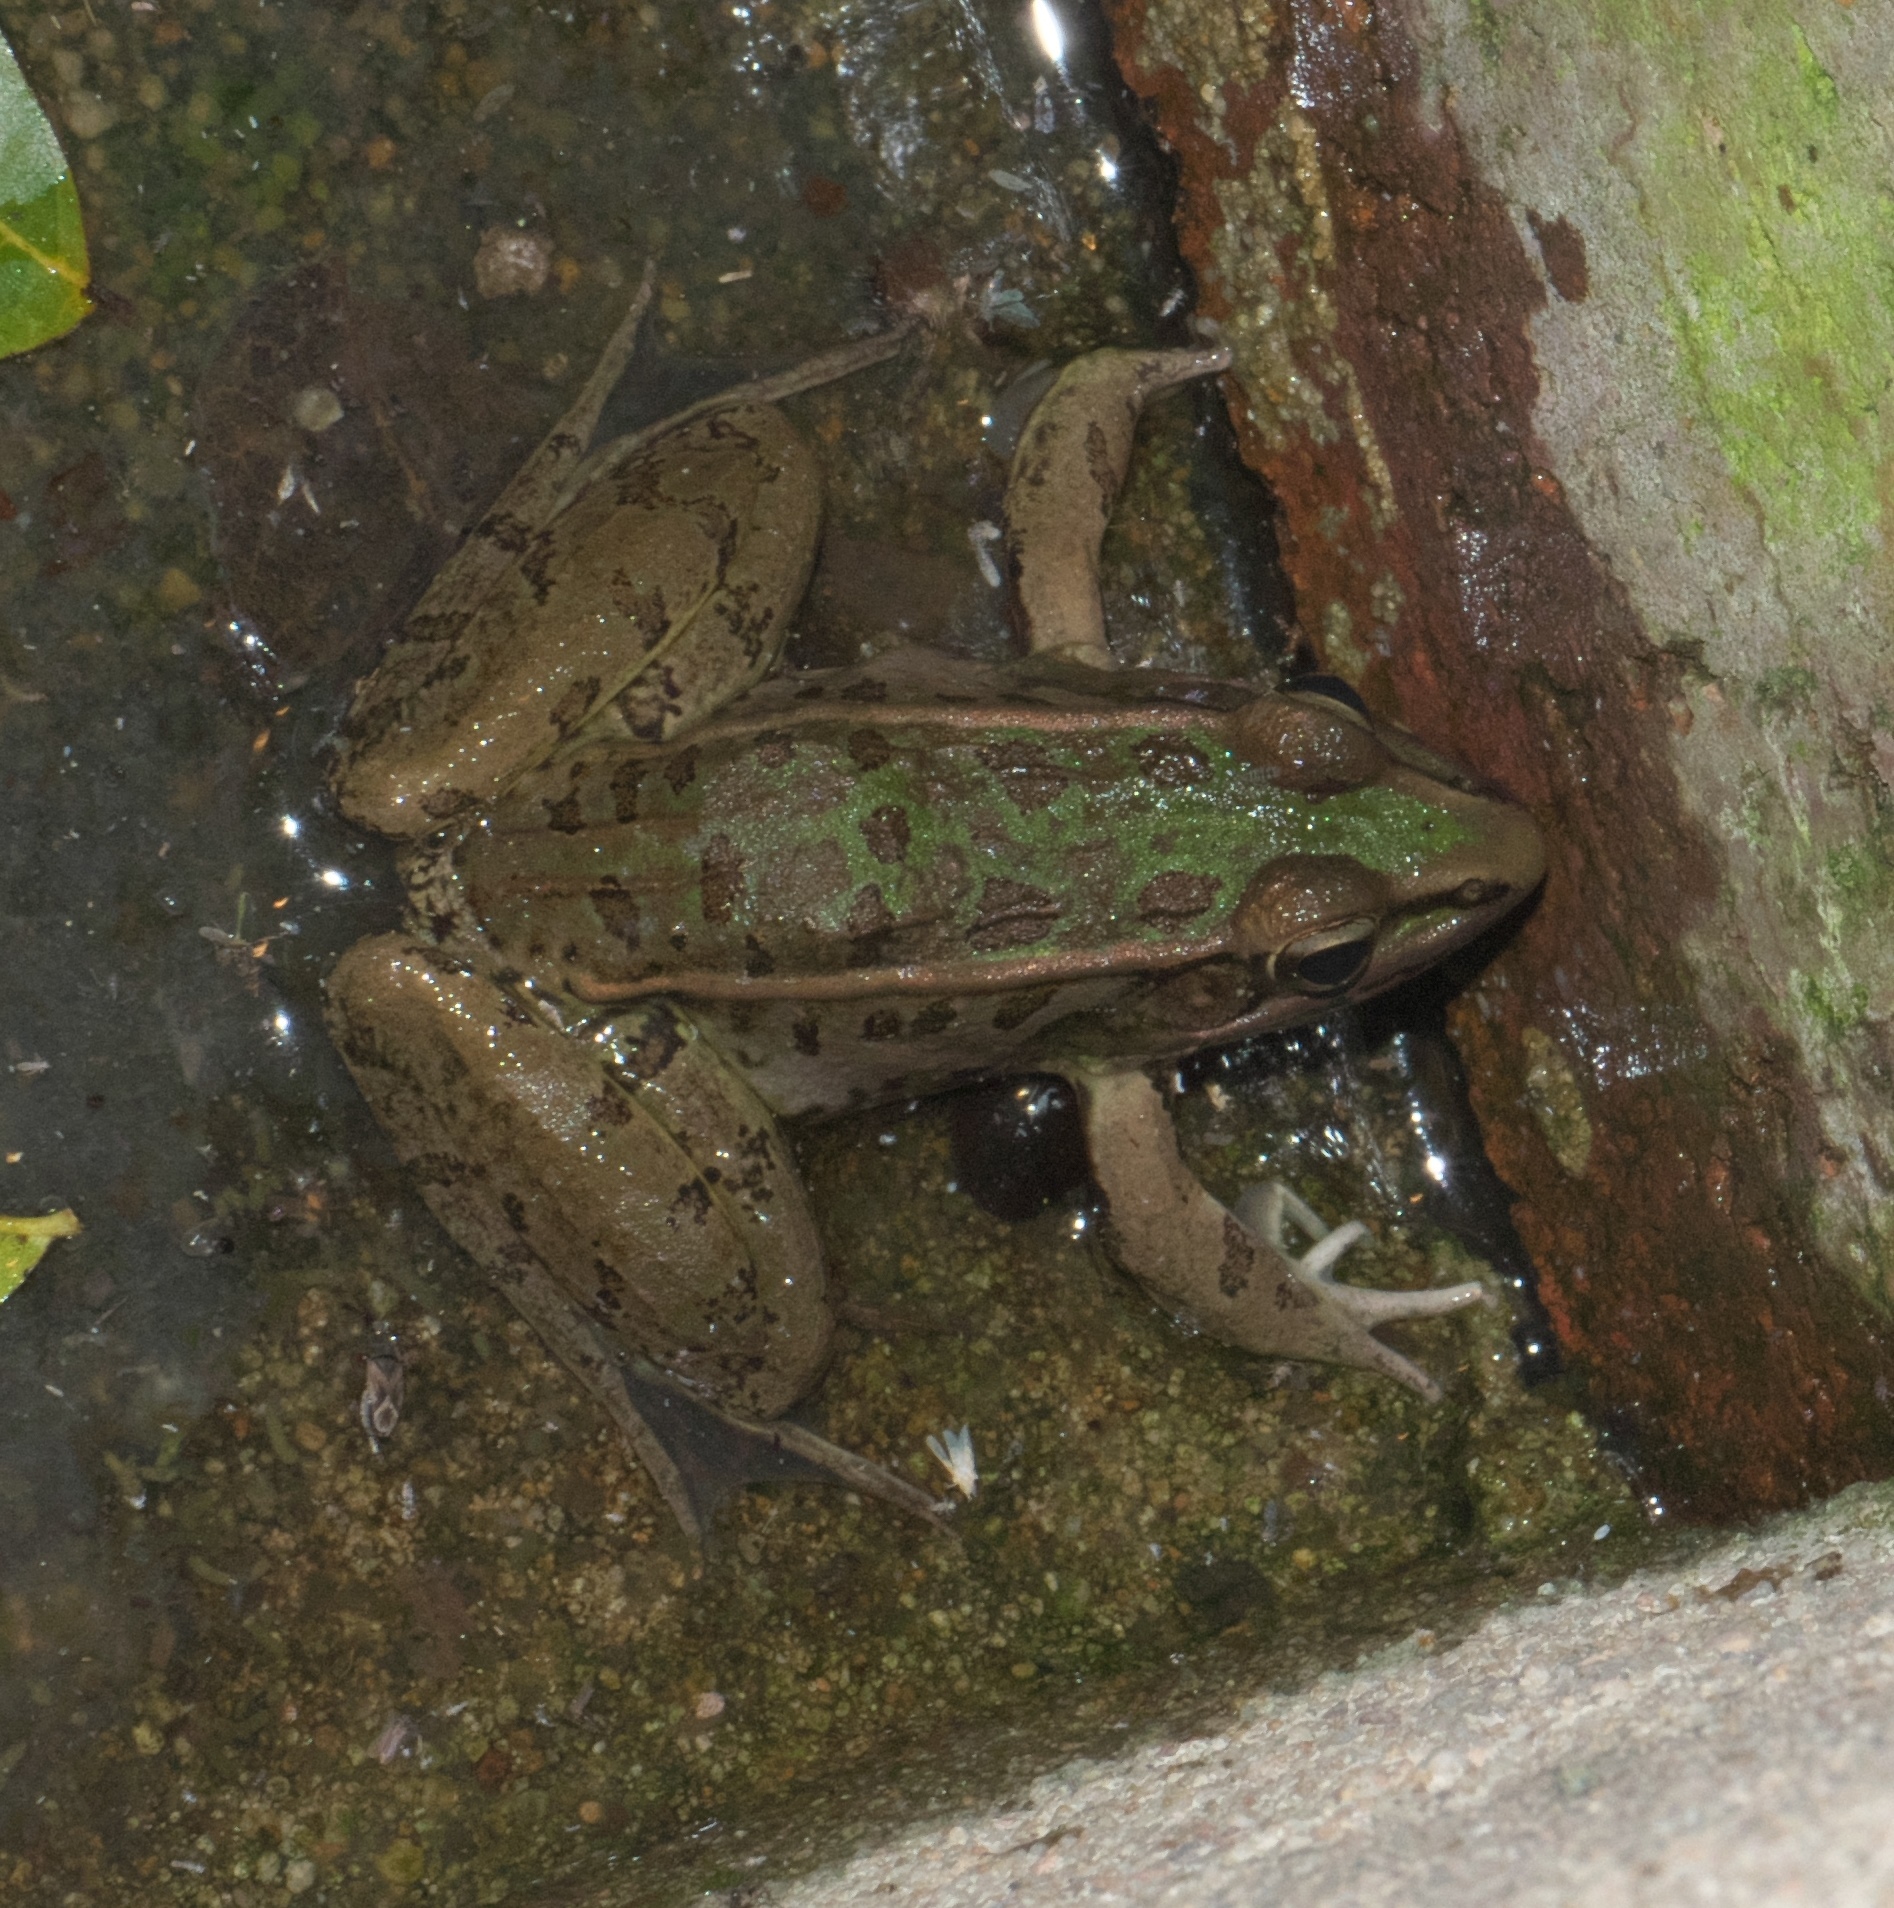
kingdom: Animalia
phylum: Chordata
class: Amphibia
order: Anura
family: Ranidae
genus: Lithobates
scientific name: Lithobates sphenocephalus
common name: Southern leopard frog
